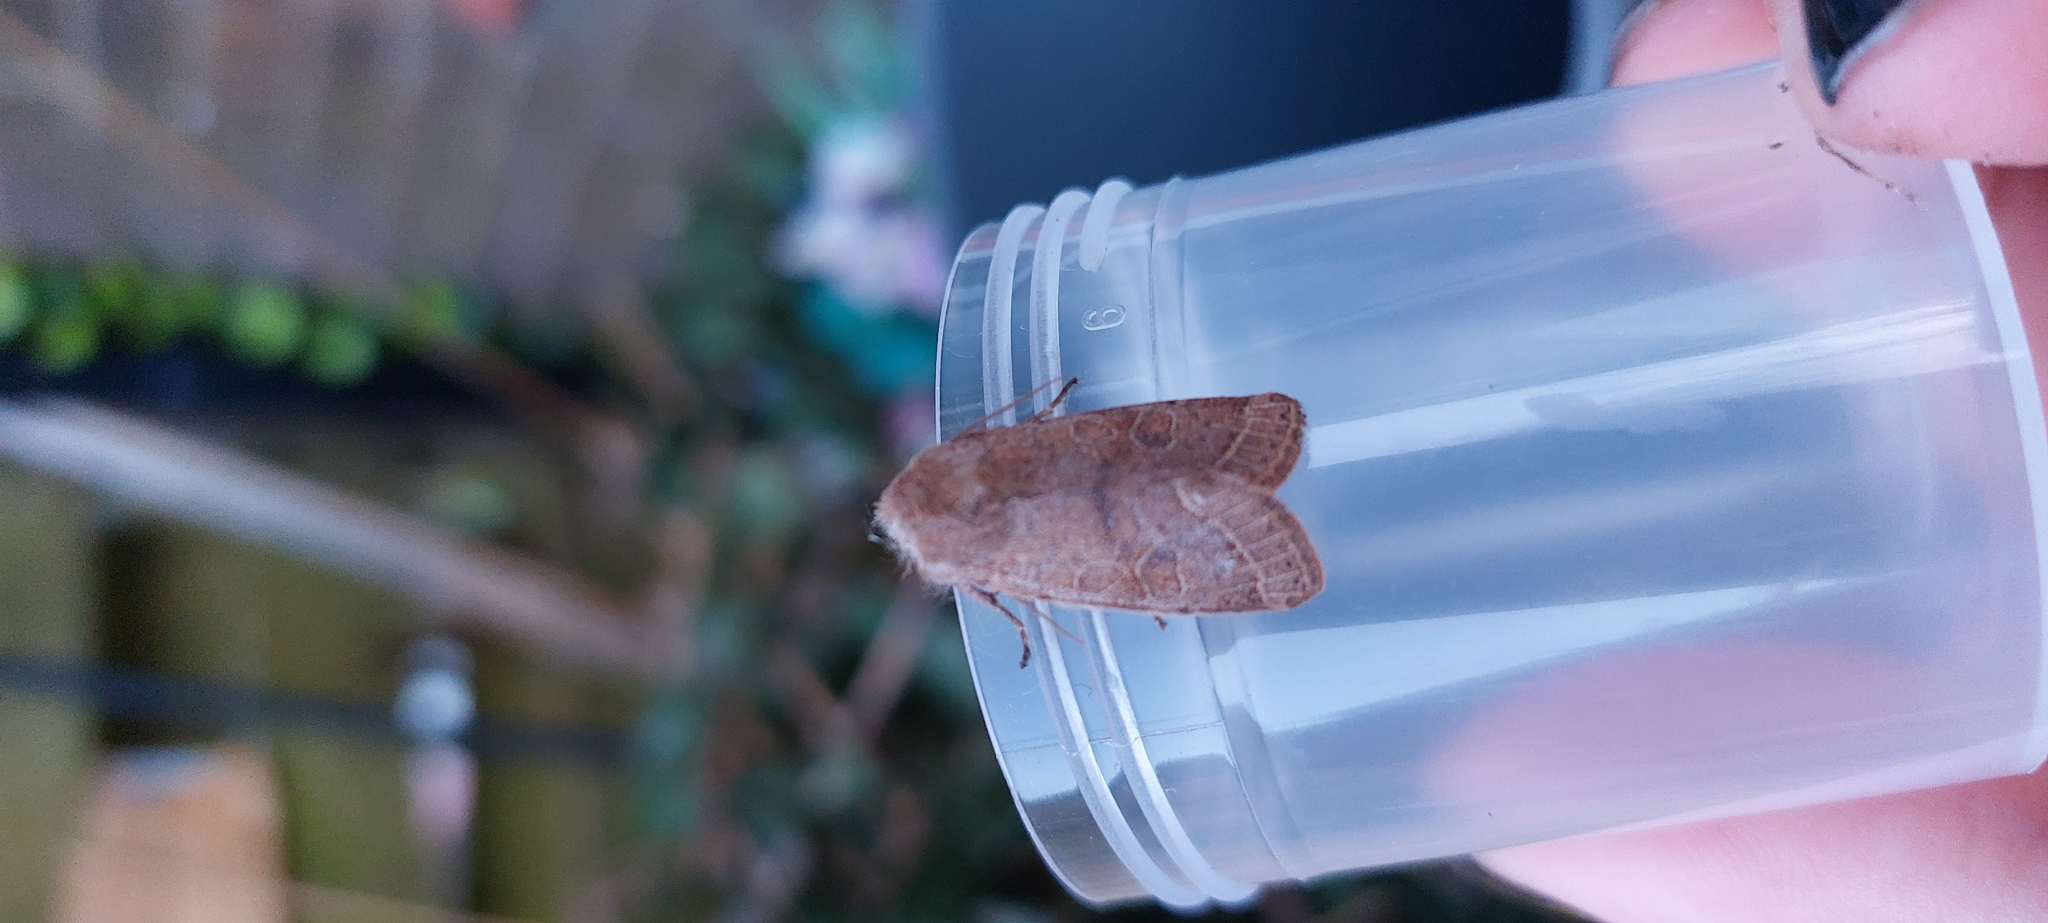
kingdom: Animalia
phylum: Arthropoda
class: Insecta
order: Lepidoptera
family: Noctuidae
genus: Orthosia
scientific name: Orthosia cerasi
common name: Common quaker
